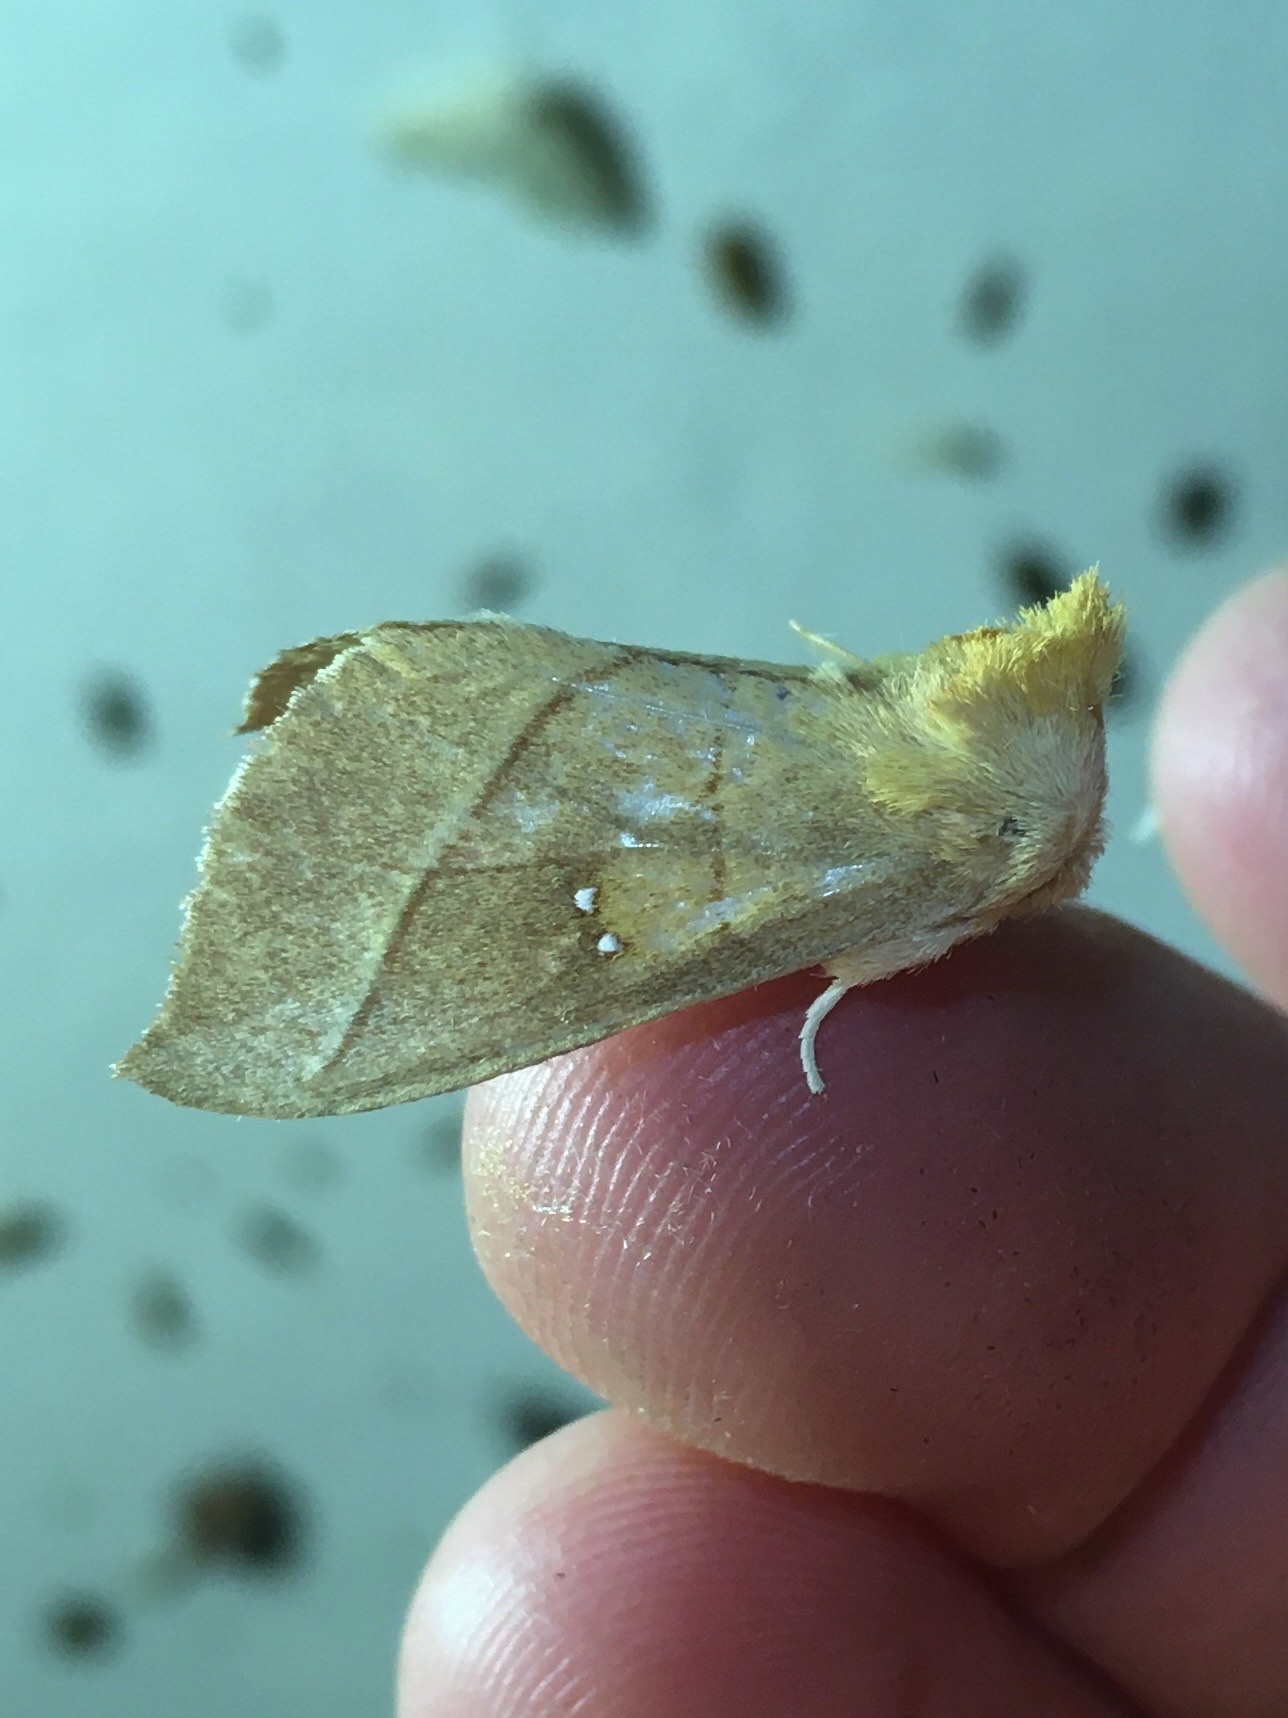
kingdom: Animalia
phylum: Arthropoda
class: Insecta
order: Lepidoptera
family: Notodontidae
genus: Nadata
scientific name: Nadata gibbosa
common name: White-dotted prominent
